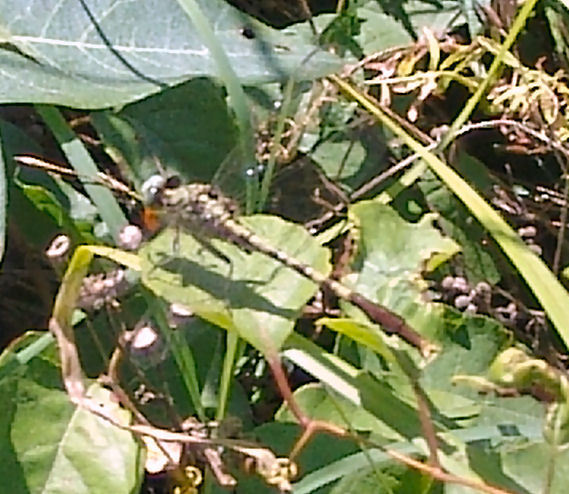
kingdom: Animalia
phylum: Arthropoda
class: Insecta
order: Odonata
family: Gomphidae
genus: Arigomphus
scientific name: Arigomphus submedianus
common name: Jade clubtail
